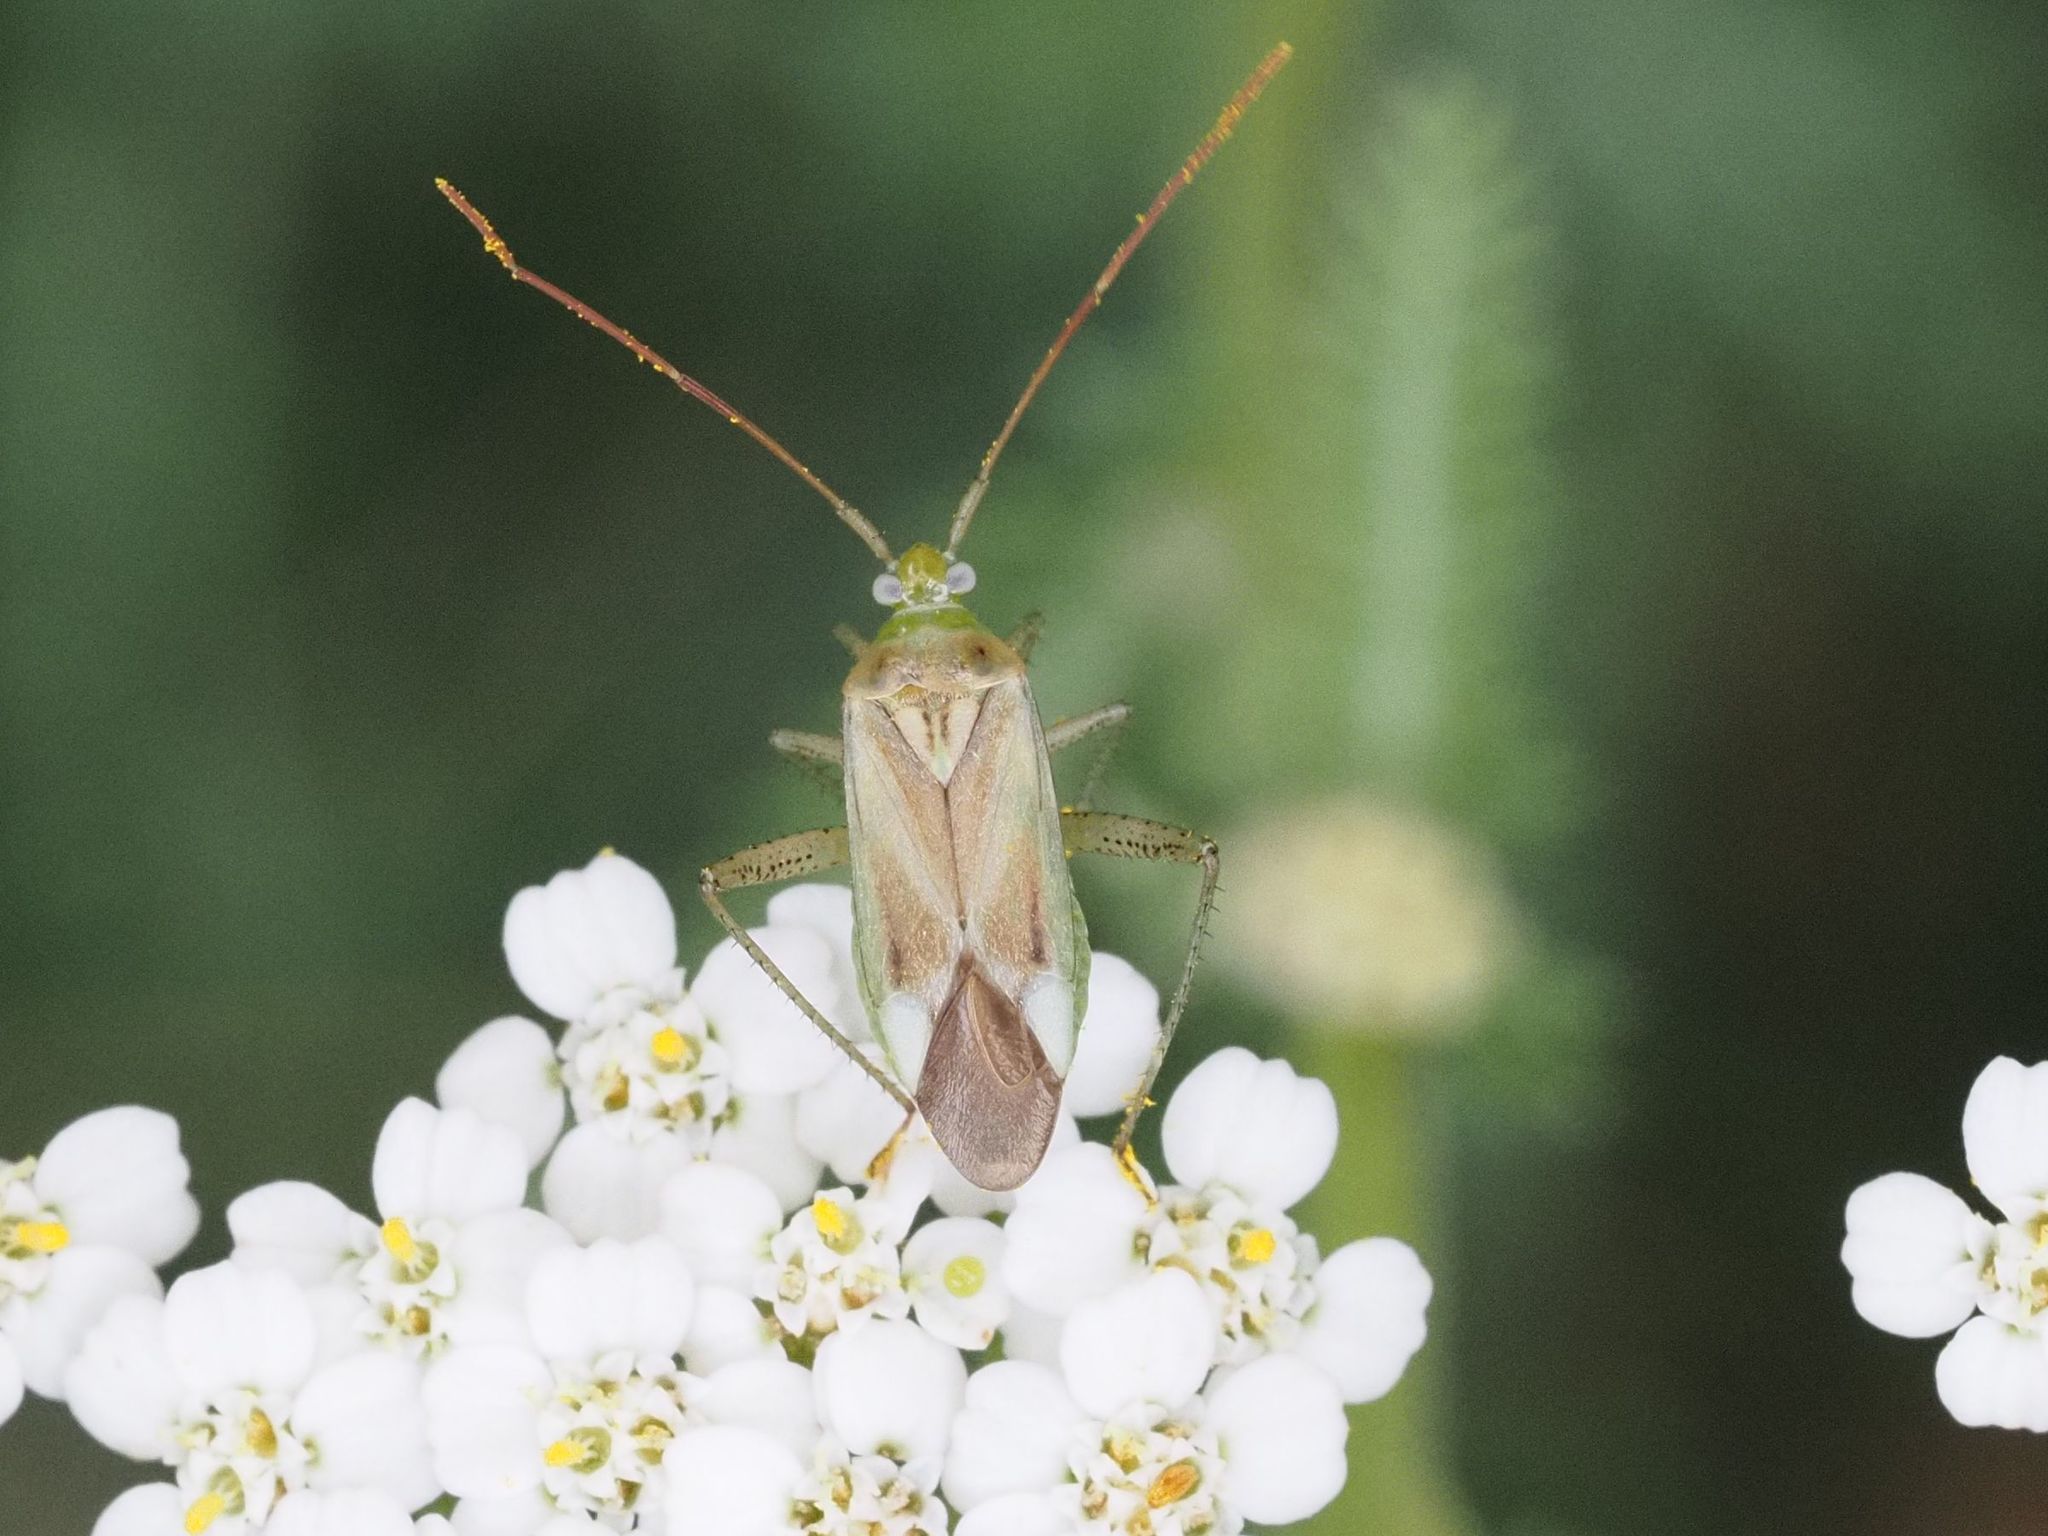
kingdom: Animalia
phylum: Arthropoda
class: Insecta
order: Hemiptera
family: Miridae
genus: Adelphocoris
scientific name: Adelphocoris lineolatus
